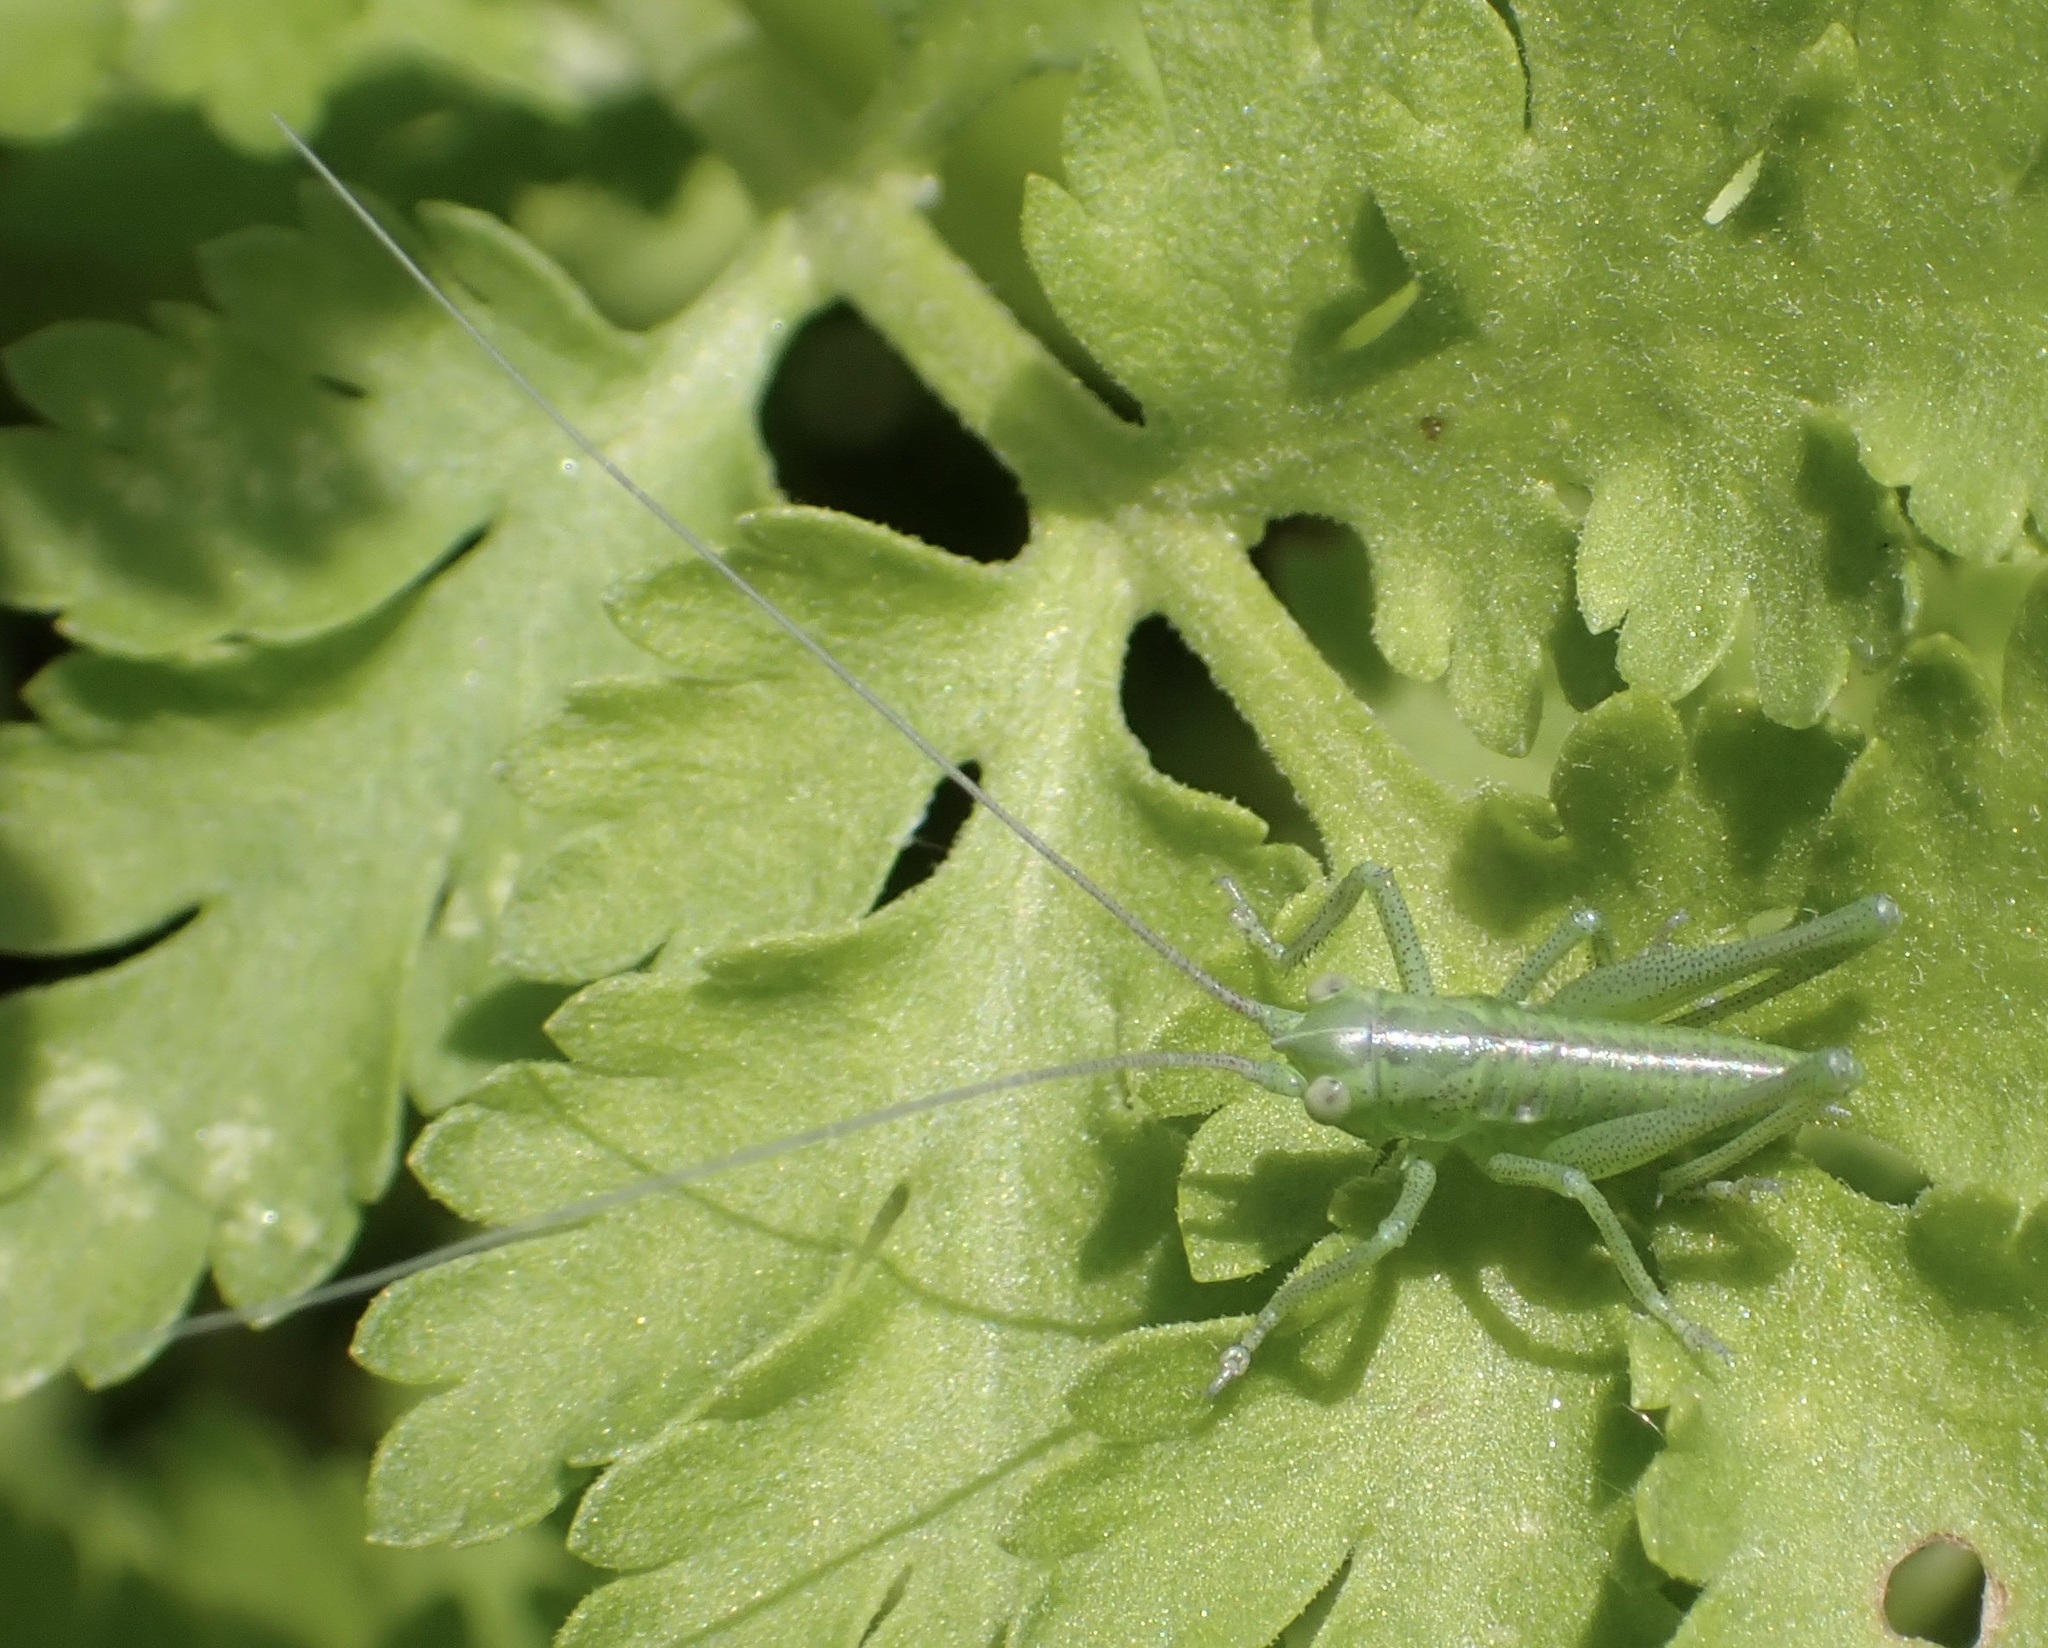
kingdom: Animalia
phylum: Arthropoda
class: Insecta
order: Orthoptera
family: Tettigoniidae
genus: Tettigonia
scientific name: Tettigonia viridissima
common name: Great green bush-cricket
